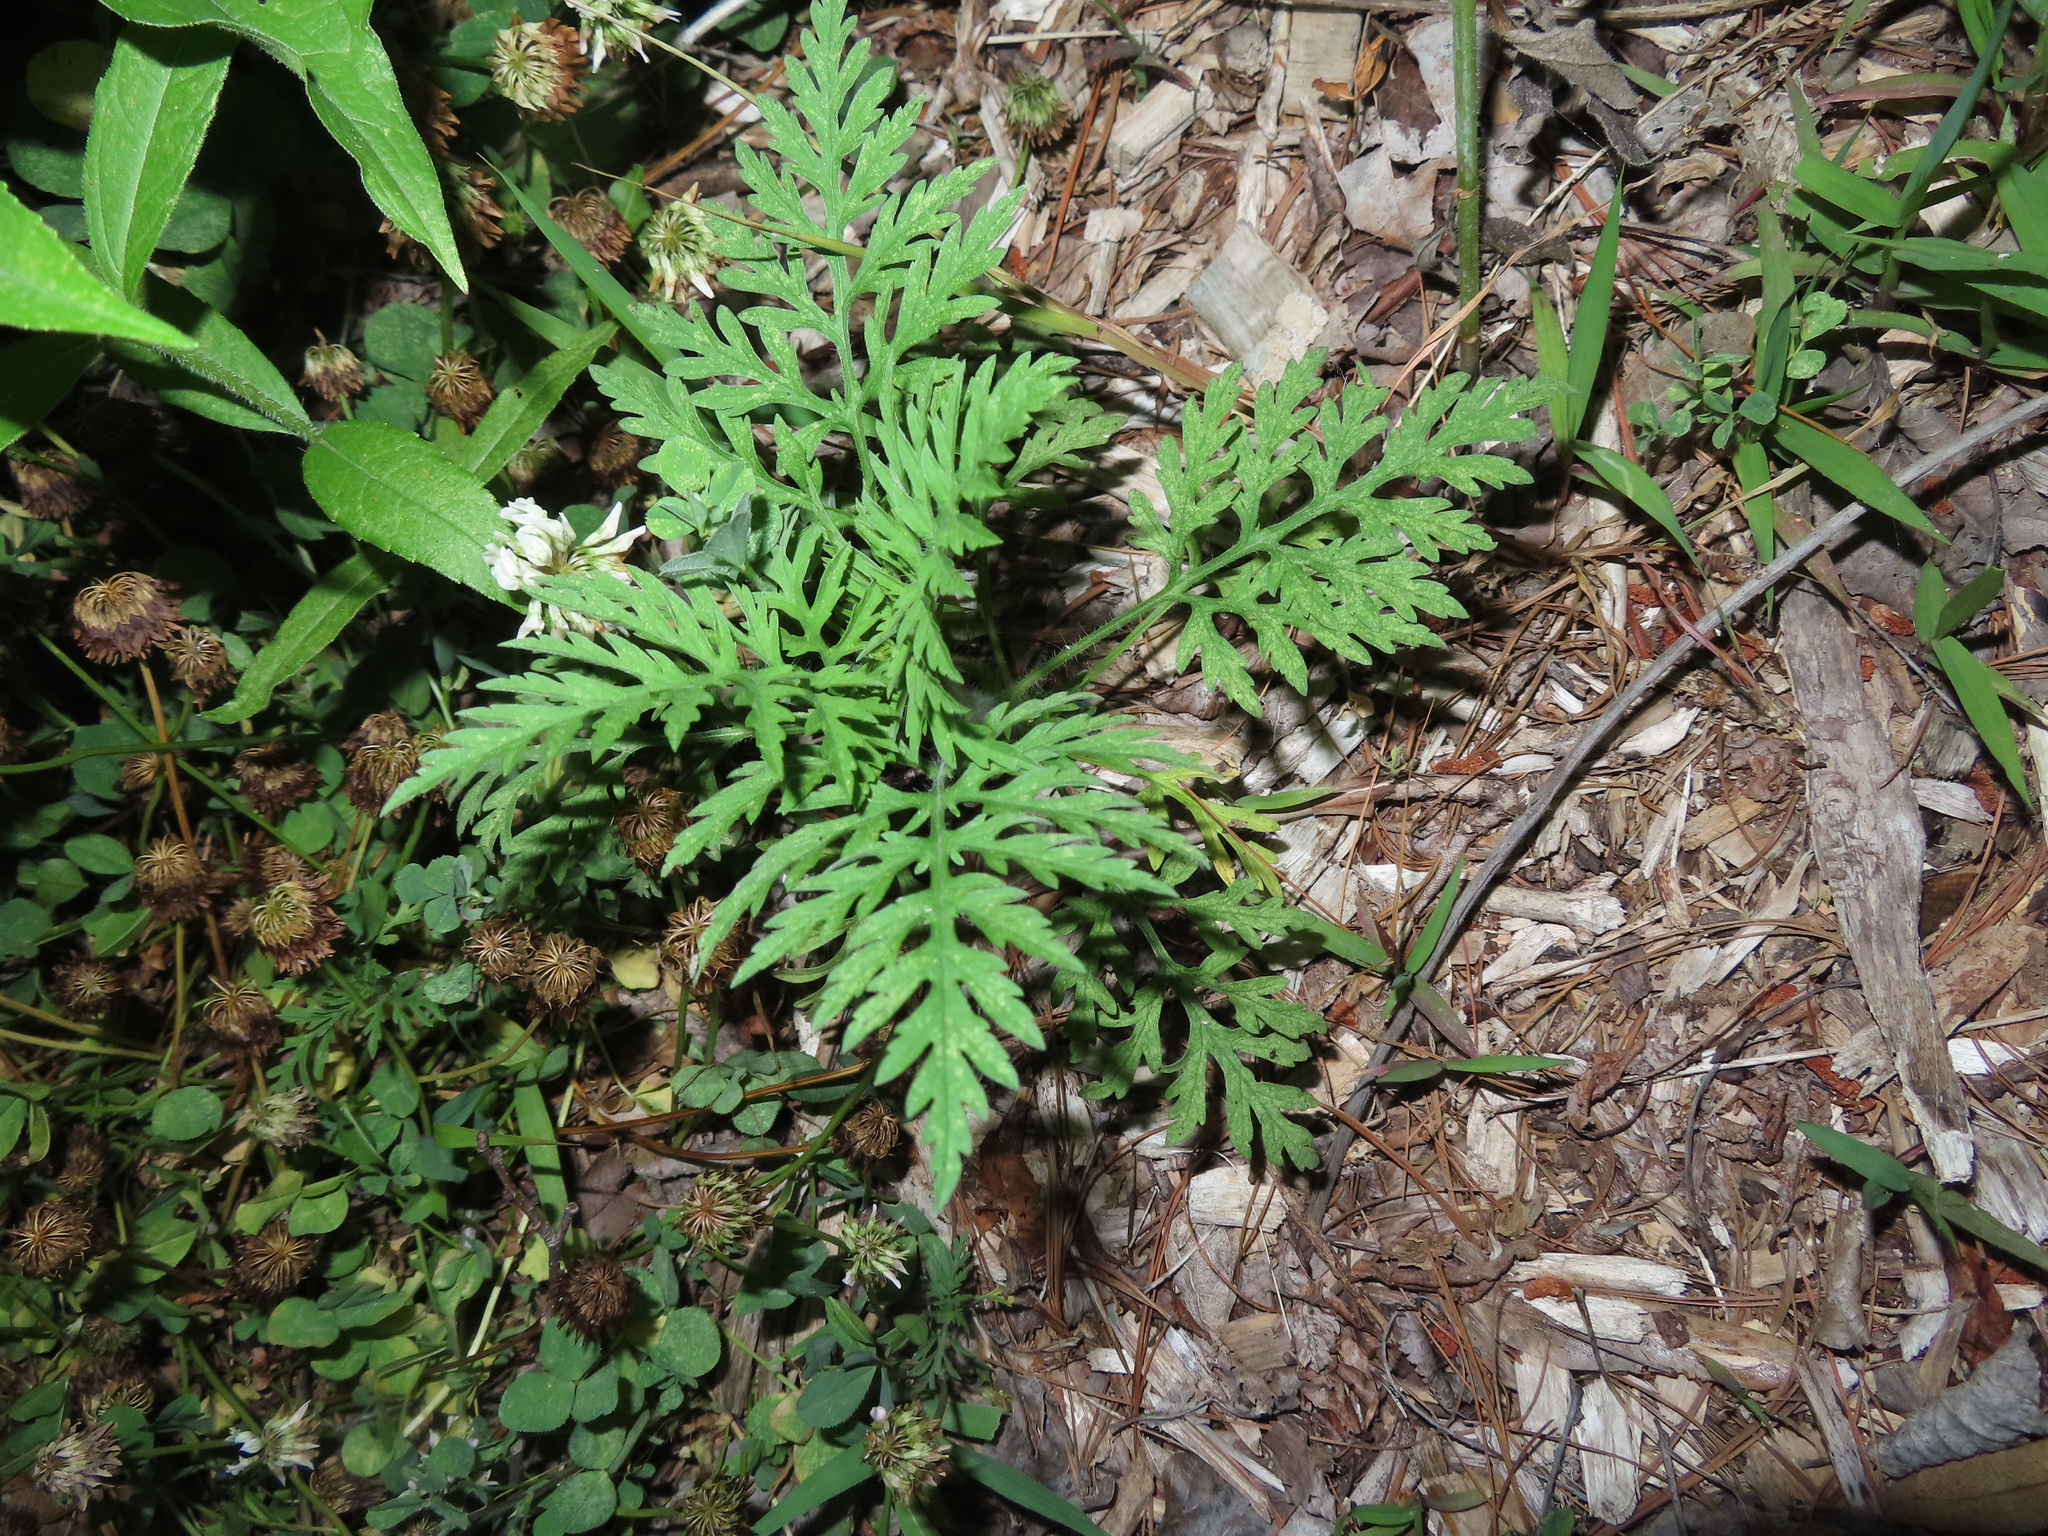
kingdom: Plantae
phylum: Tracheophyta
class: Magnoliopsida
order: Asterales
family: Asteraceae
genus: Ambrosia
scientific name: Ambrosia artemisiifolia
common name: Annual ragweed
